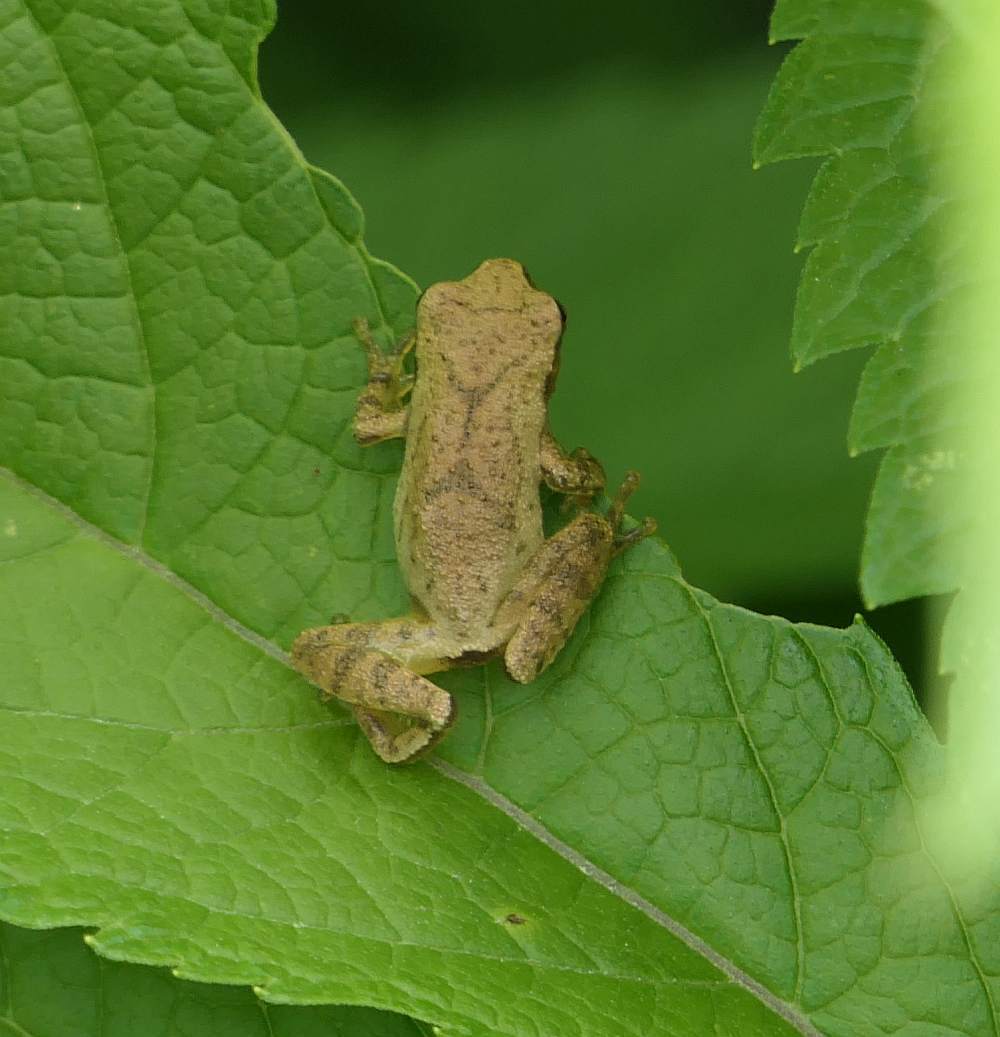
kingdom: Animalia
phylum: Chordata
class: Amphibia
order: Anura
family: Hylidae
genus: Pseudacris
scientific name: Pseudacris crucifer
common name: Spring peeper
